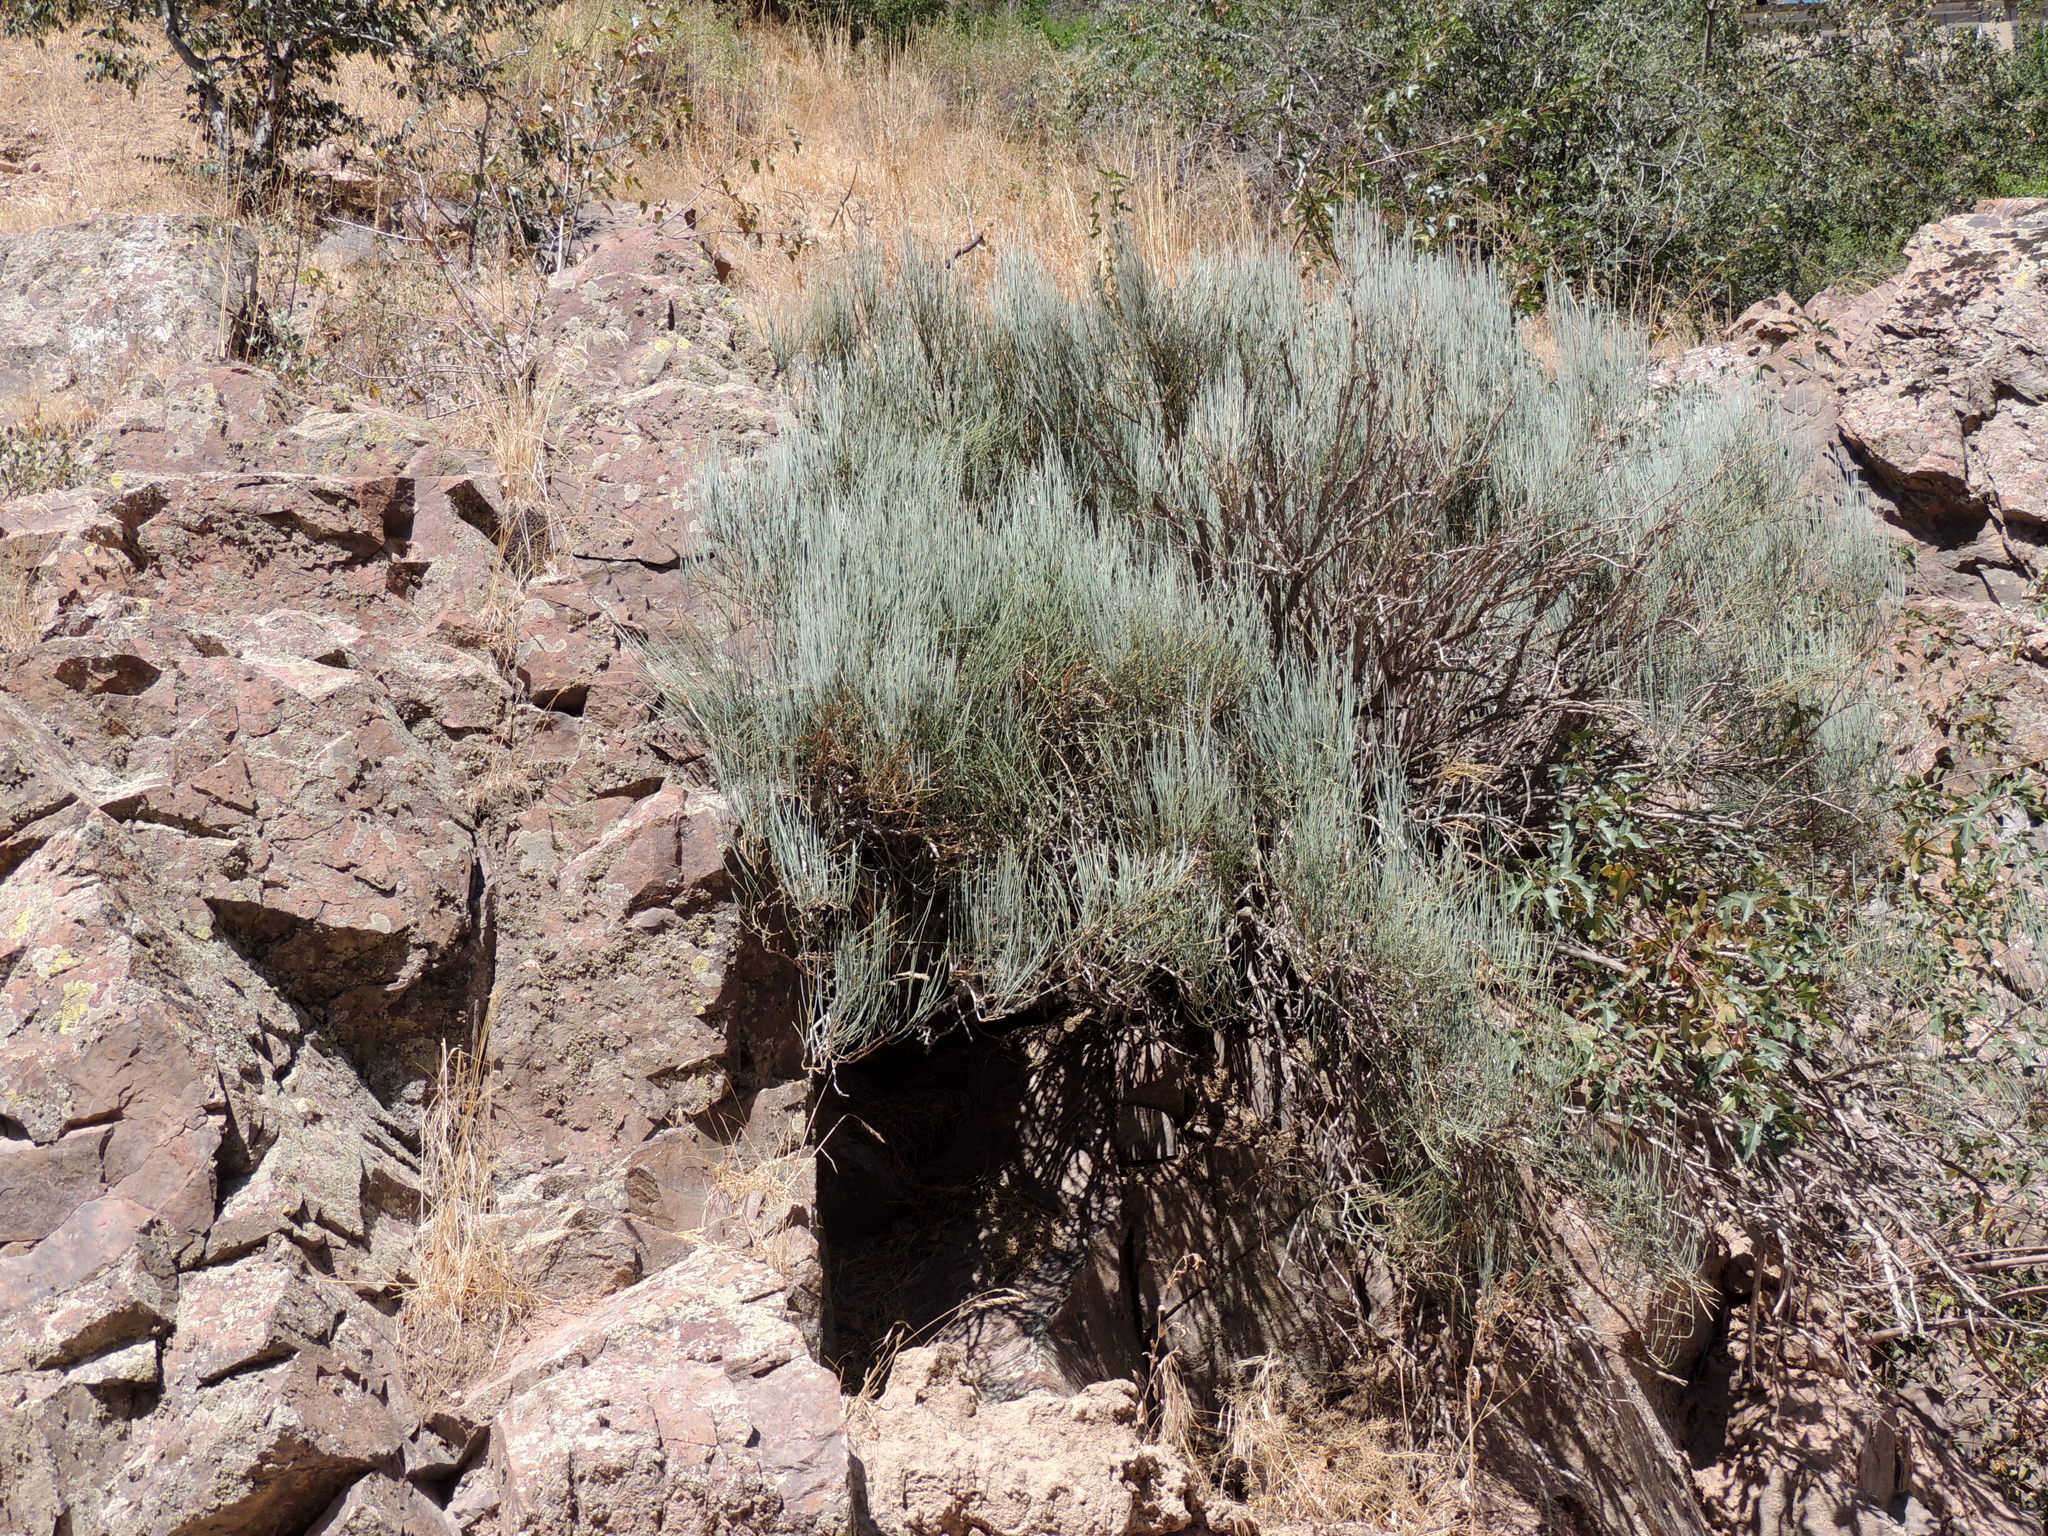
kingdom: Plantae
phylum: Tracheophyta
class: Gnetopsida
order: Ephedrales
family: Ephedraceae
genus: Ephedra
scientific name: Ephedra equisetina
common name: Mongolian ephedra
